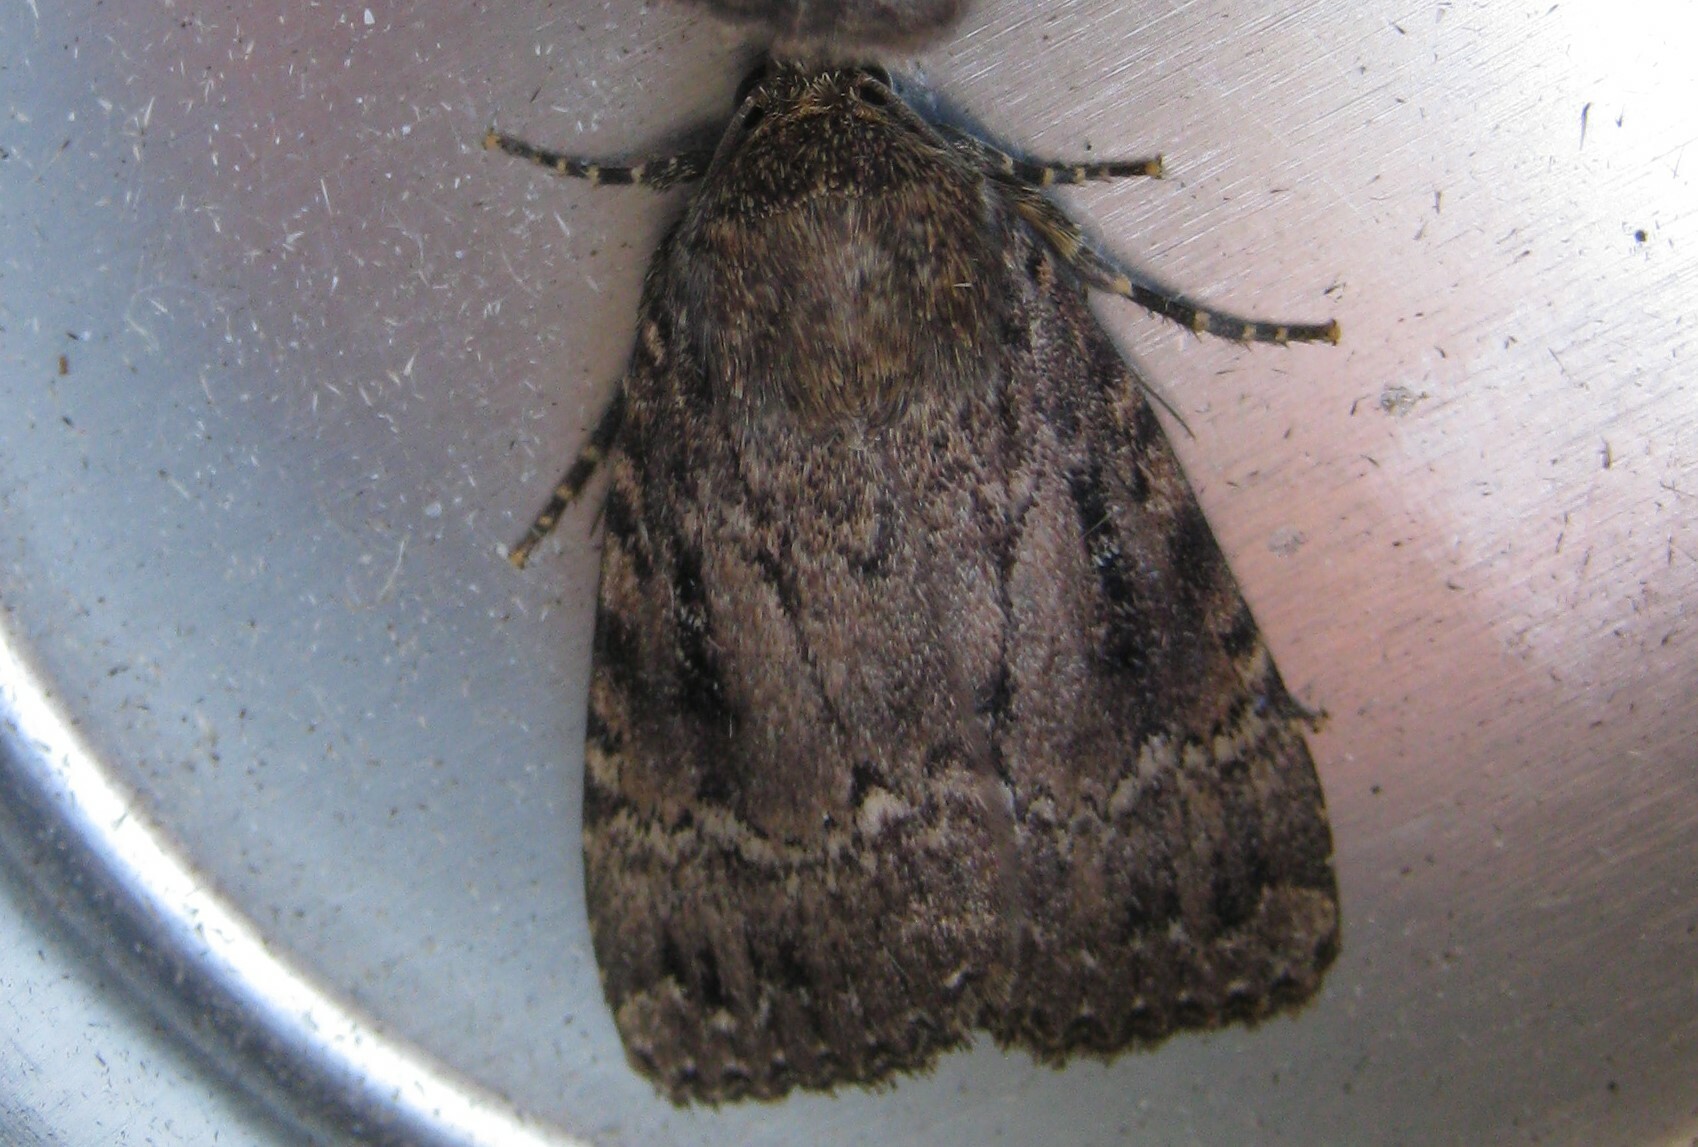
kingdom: Animalia
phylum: Arthropoda
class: Insecta
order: Lepidoptera
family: Noctuidae
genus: Amphipyra
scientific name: Amphipyra
